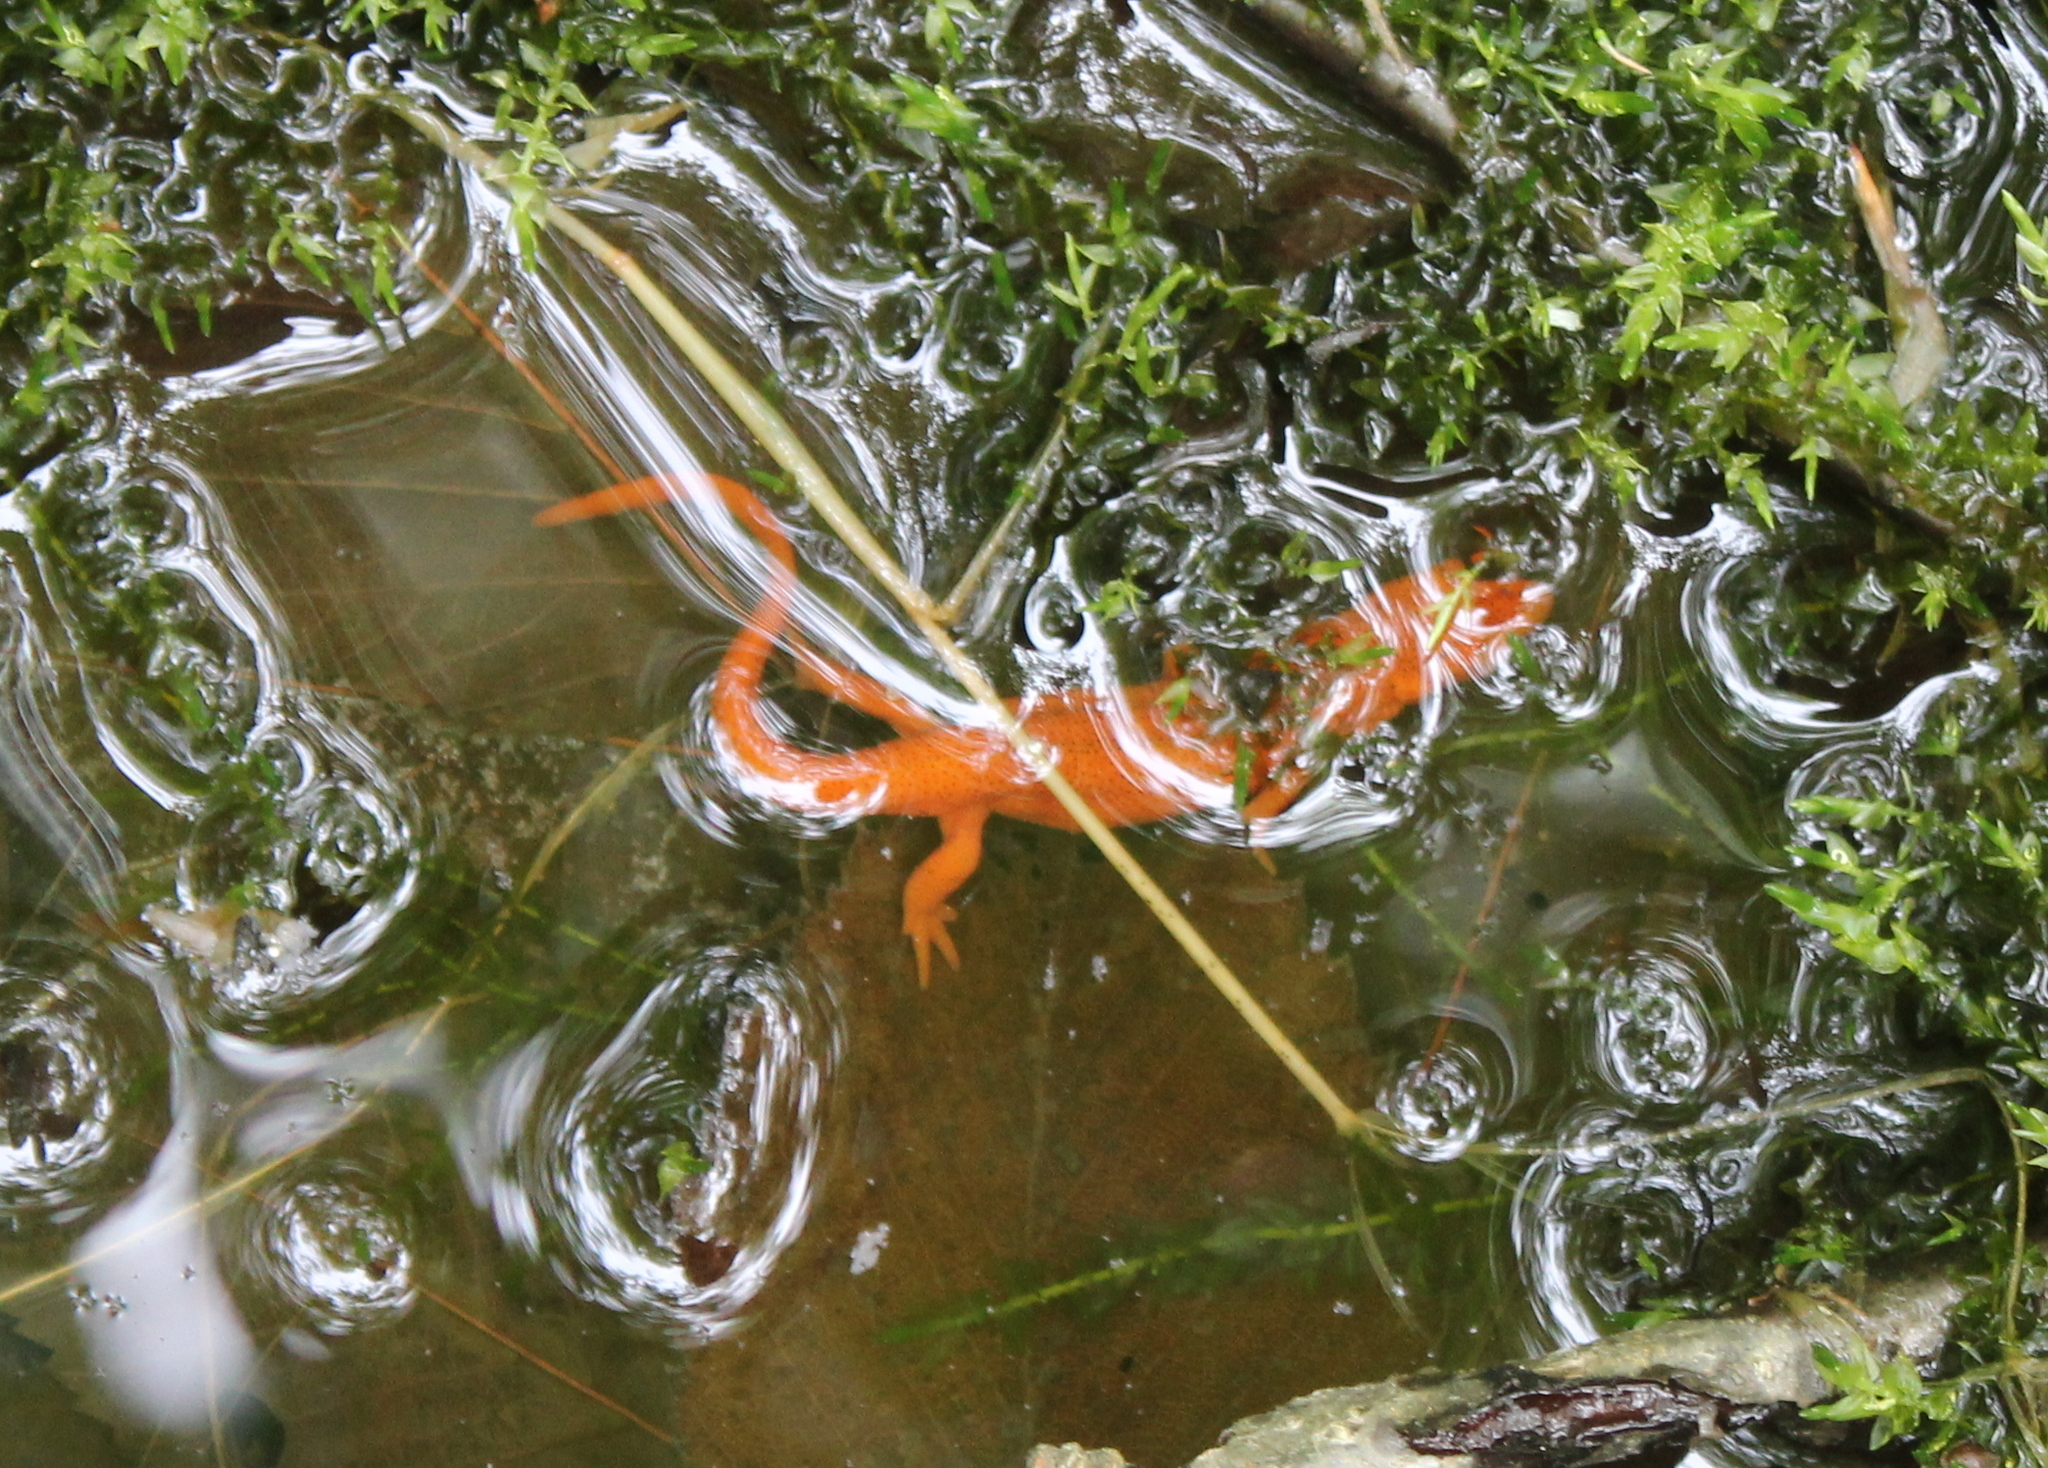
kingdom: Animalia
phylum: Chordata
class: Amphibia
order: Caudata
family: Salamandridae
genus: Notophthalmus
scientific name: Notophthalmus viridescens
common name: Eastern newt
